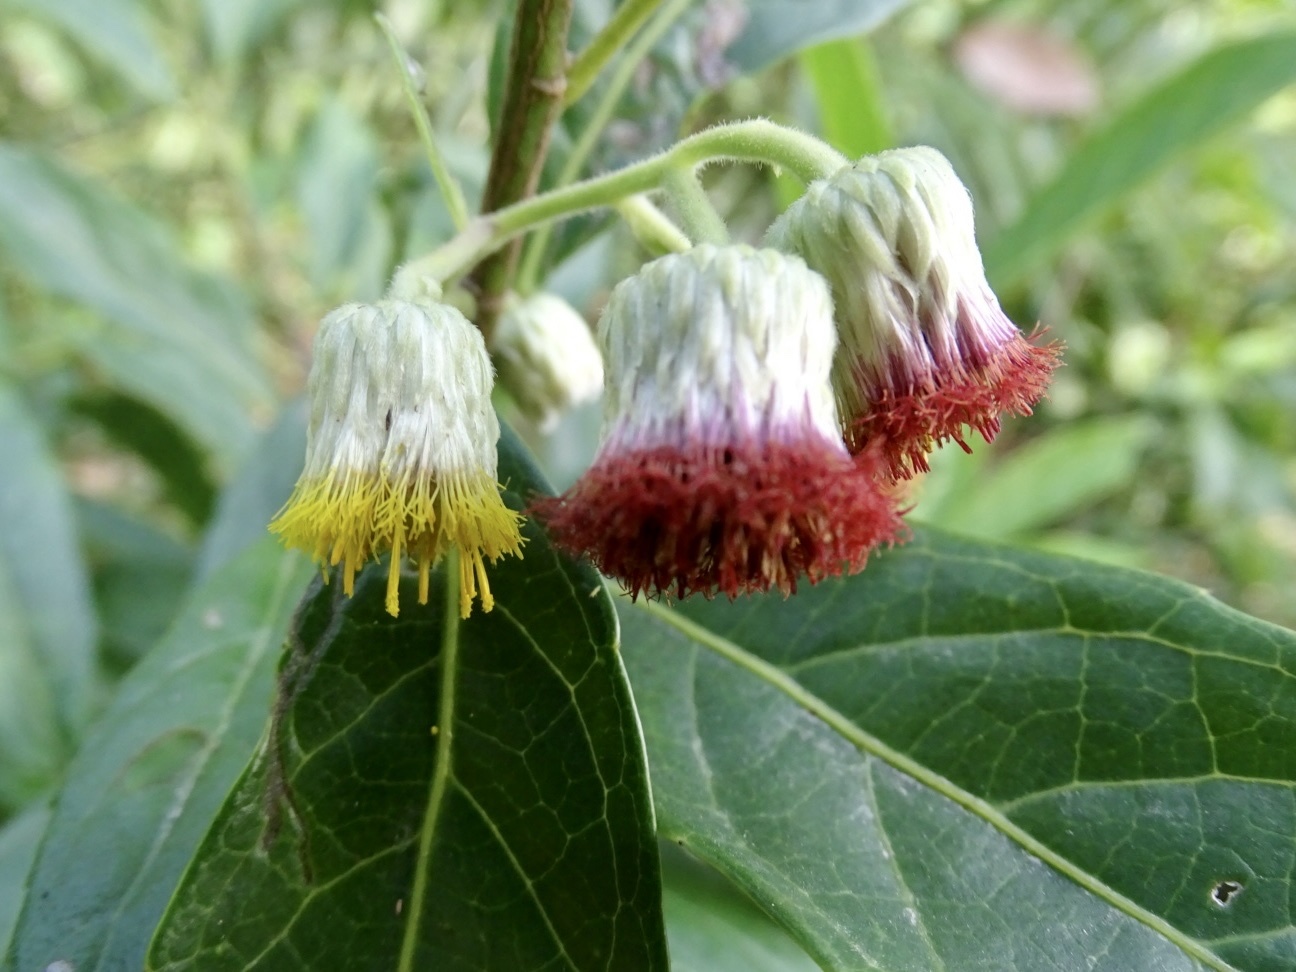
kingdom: Plantae
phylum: Tracheophyta
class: Magnoliopsida
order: Asterales
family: Asteraceae
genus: Blumea
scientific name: Blumea megacephala
